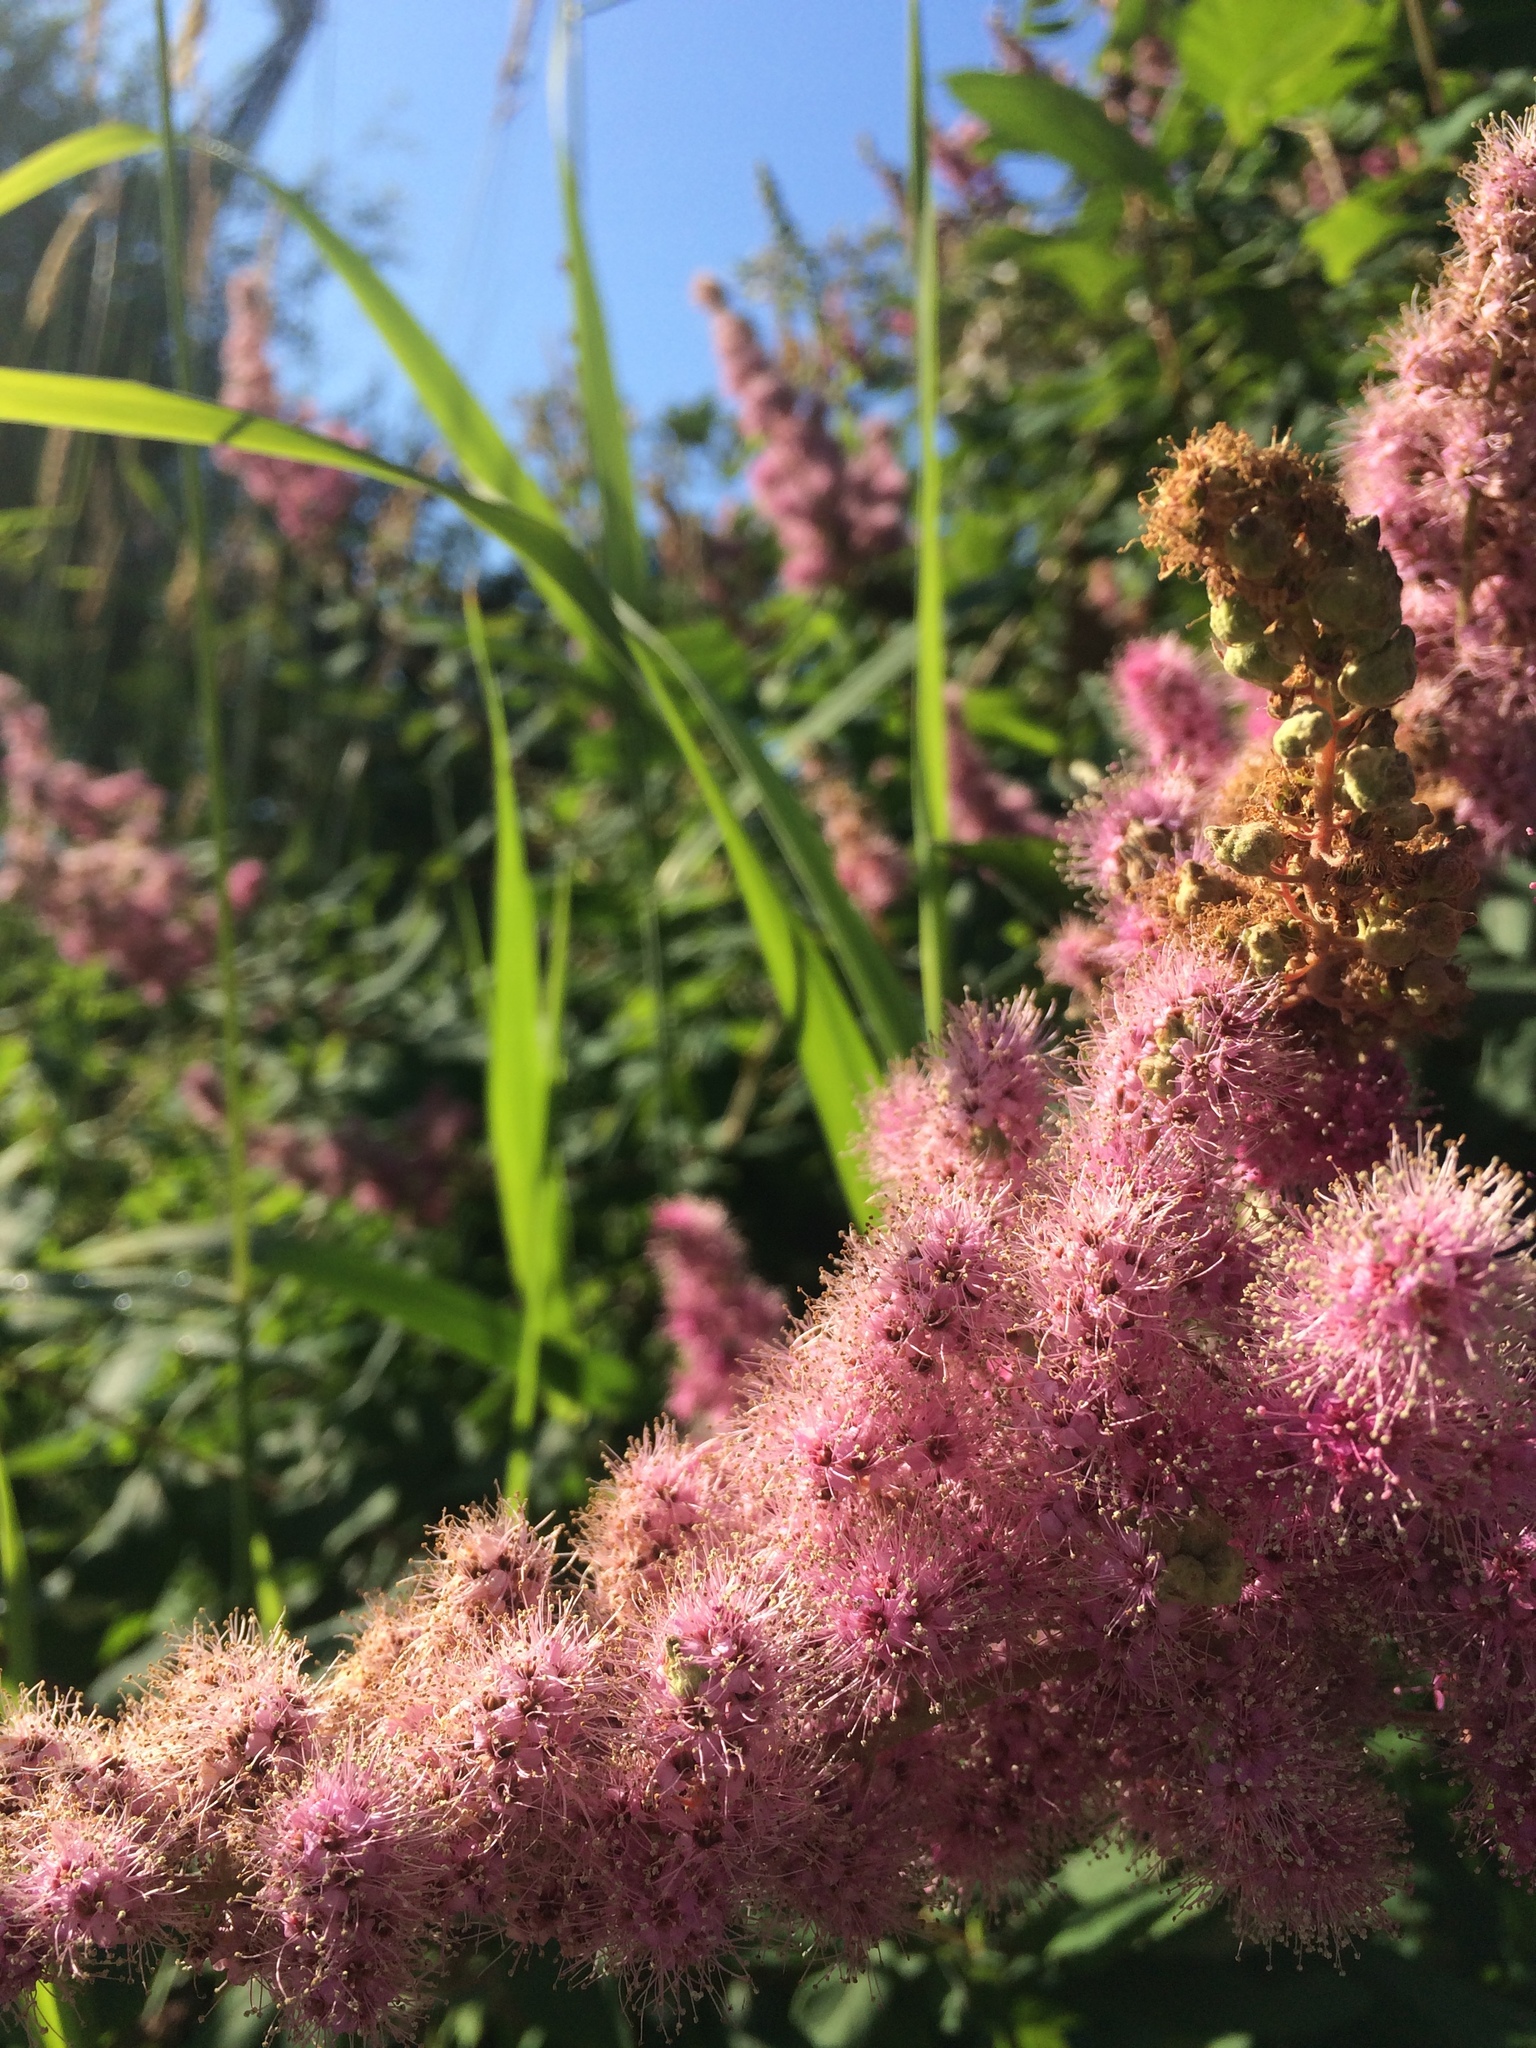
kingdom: Plantae
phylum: Tracheophyta
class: Magnoliopsida
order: Rosales
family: Rosaceae
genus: Spiraea
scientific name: Spiraea douglasii
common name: Steeplebush
